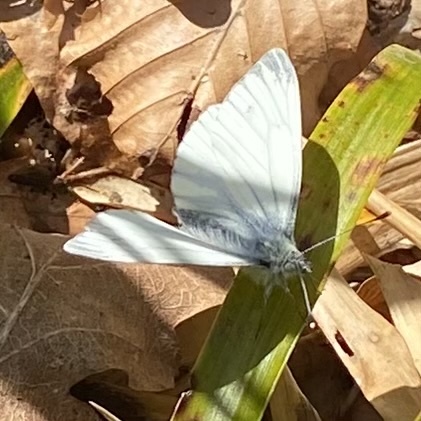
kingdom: Animalia
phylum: Arthropoda
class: Insecta
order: Lepidoptera
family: Pieridae
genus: Pieris
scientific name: Pieris napi
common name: Green-veined white
